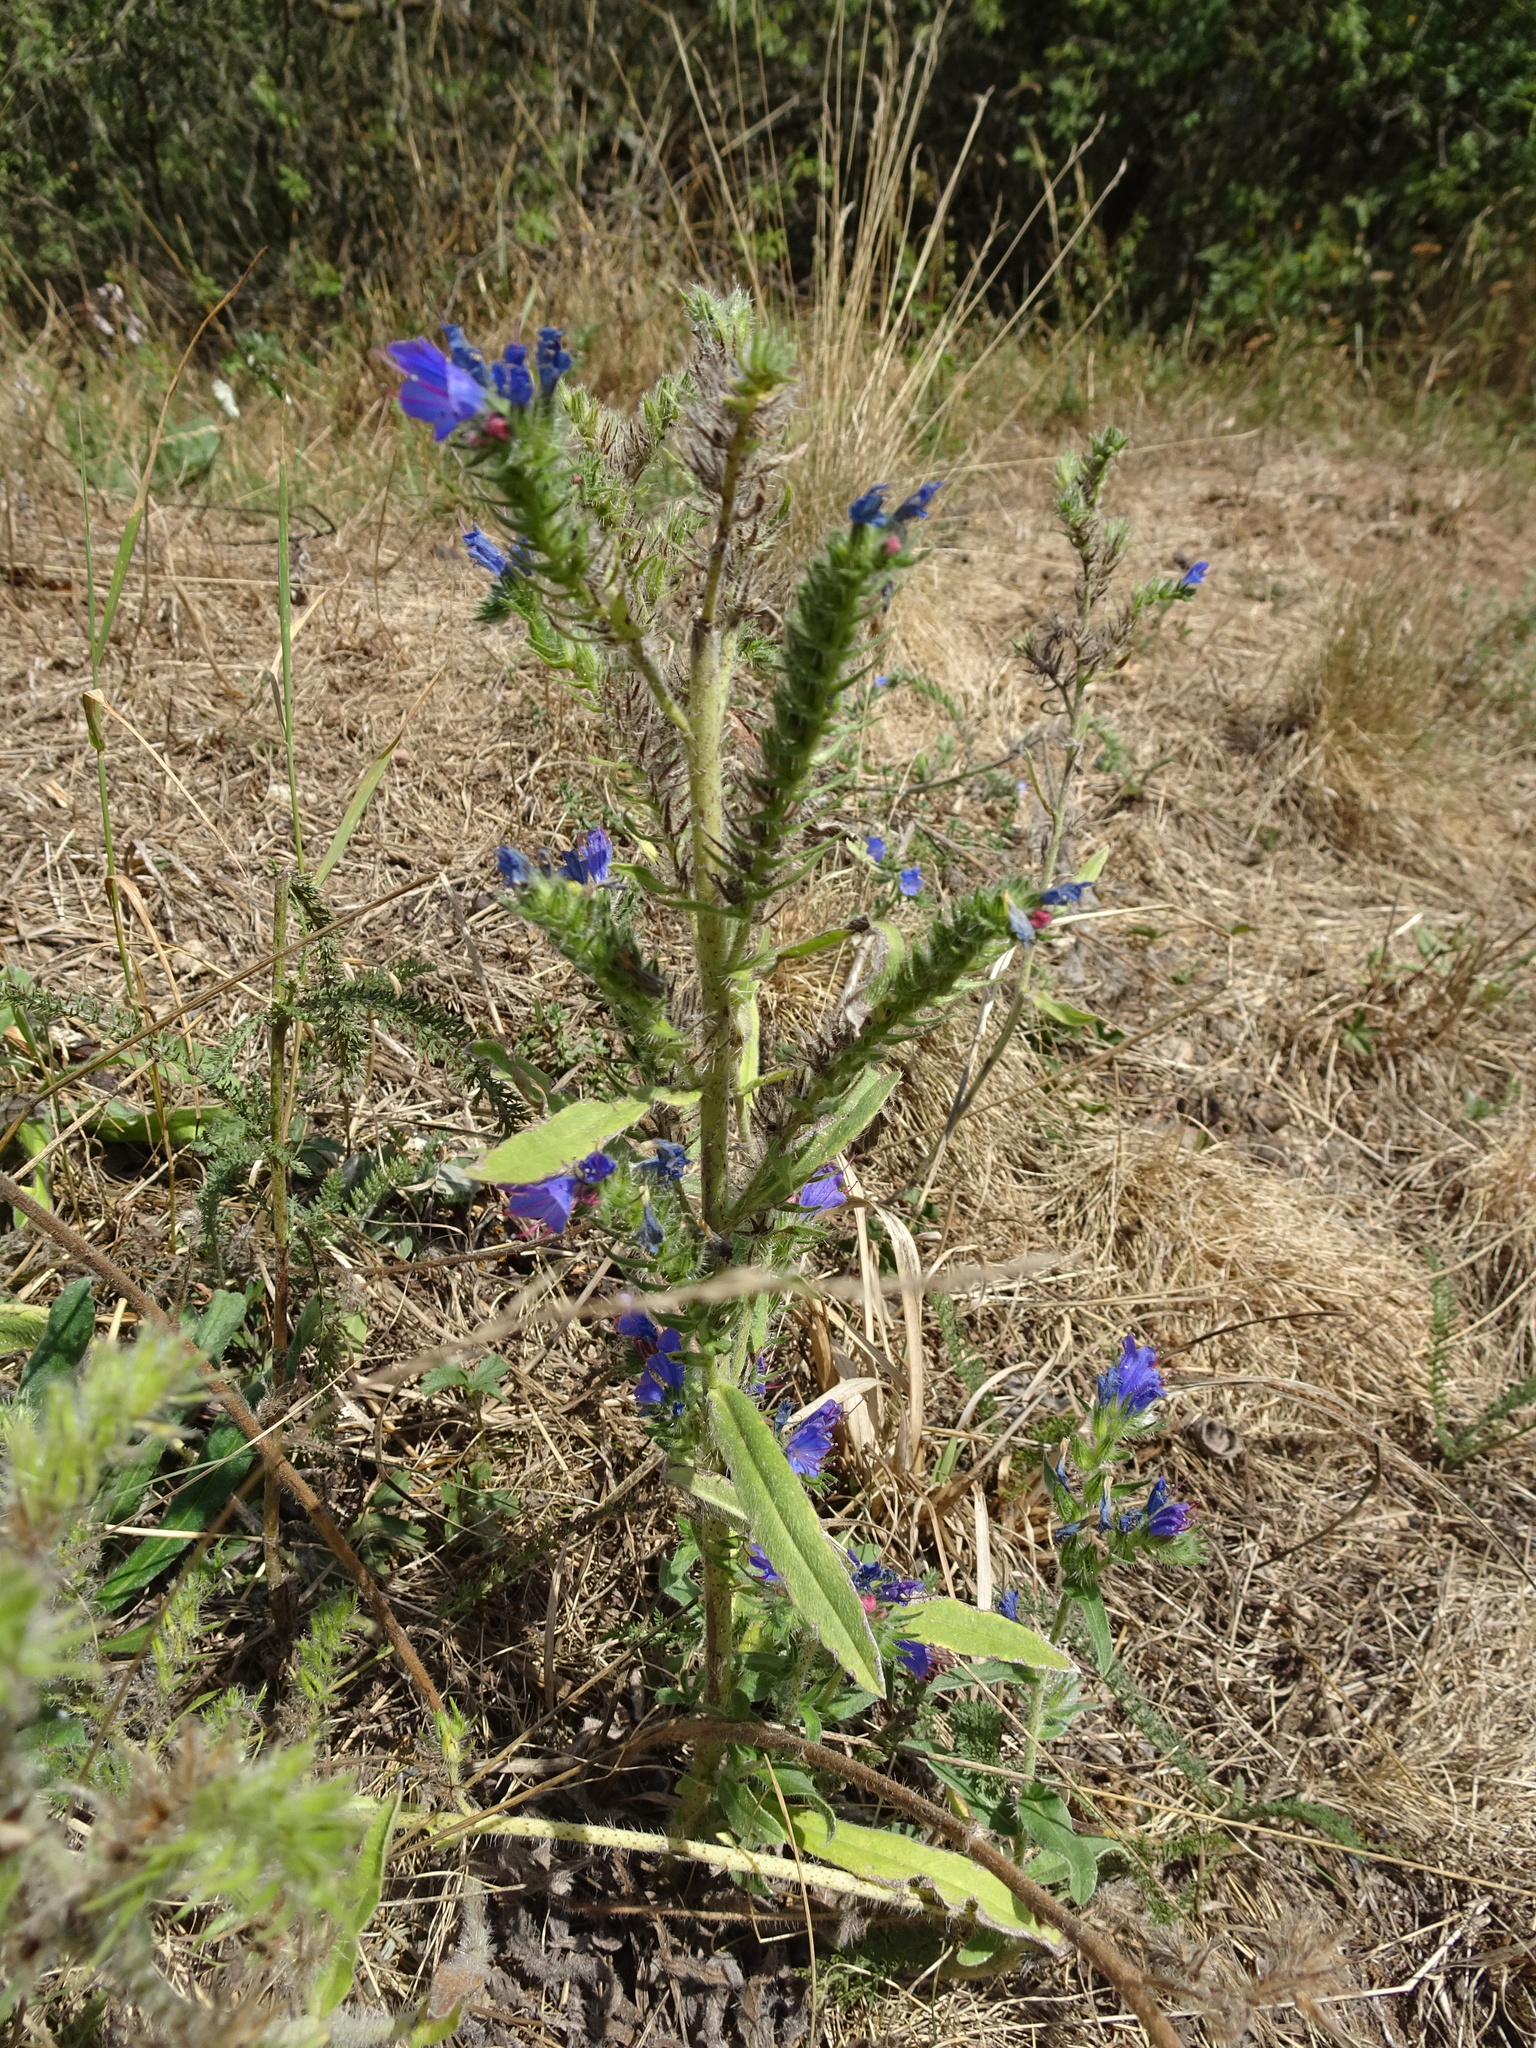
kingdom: Plantae
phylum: Tracheophyta
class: Magnoliopsida
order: Boraginales
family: Boraginaceae
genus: Echium
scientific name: Echium vulgare
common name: Common viper's bugloss
